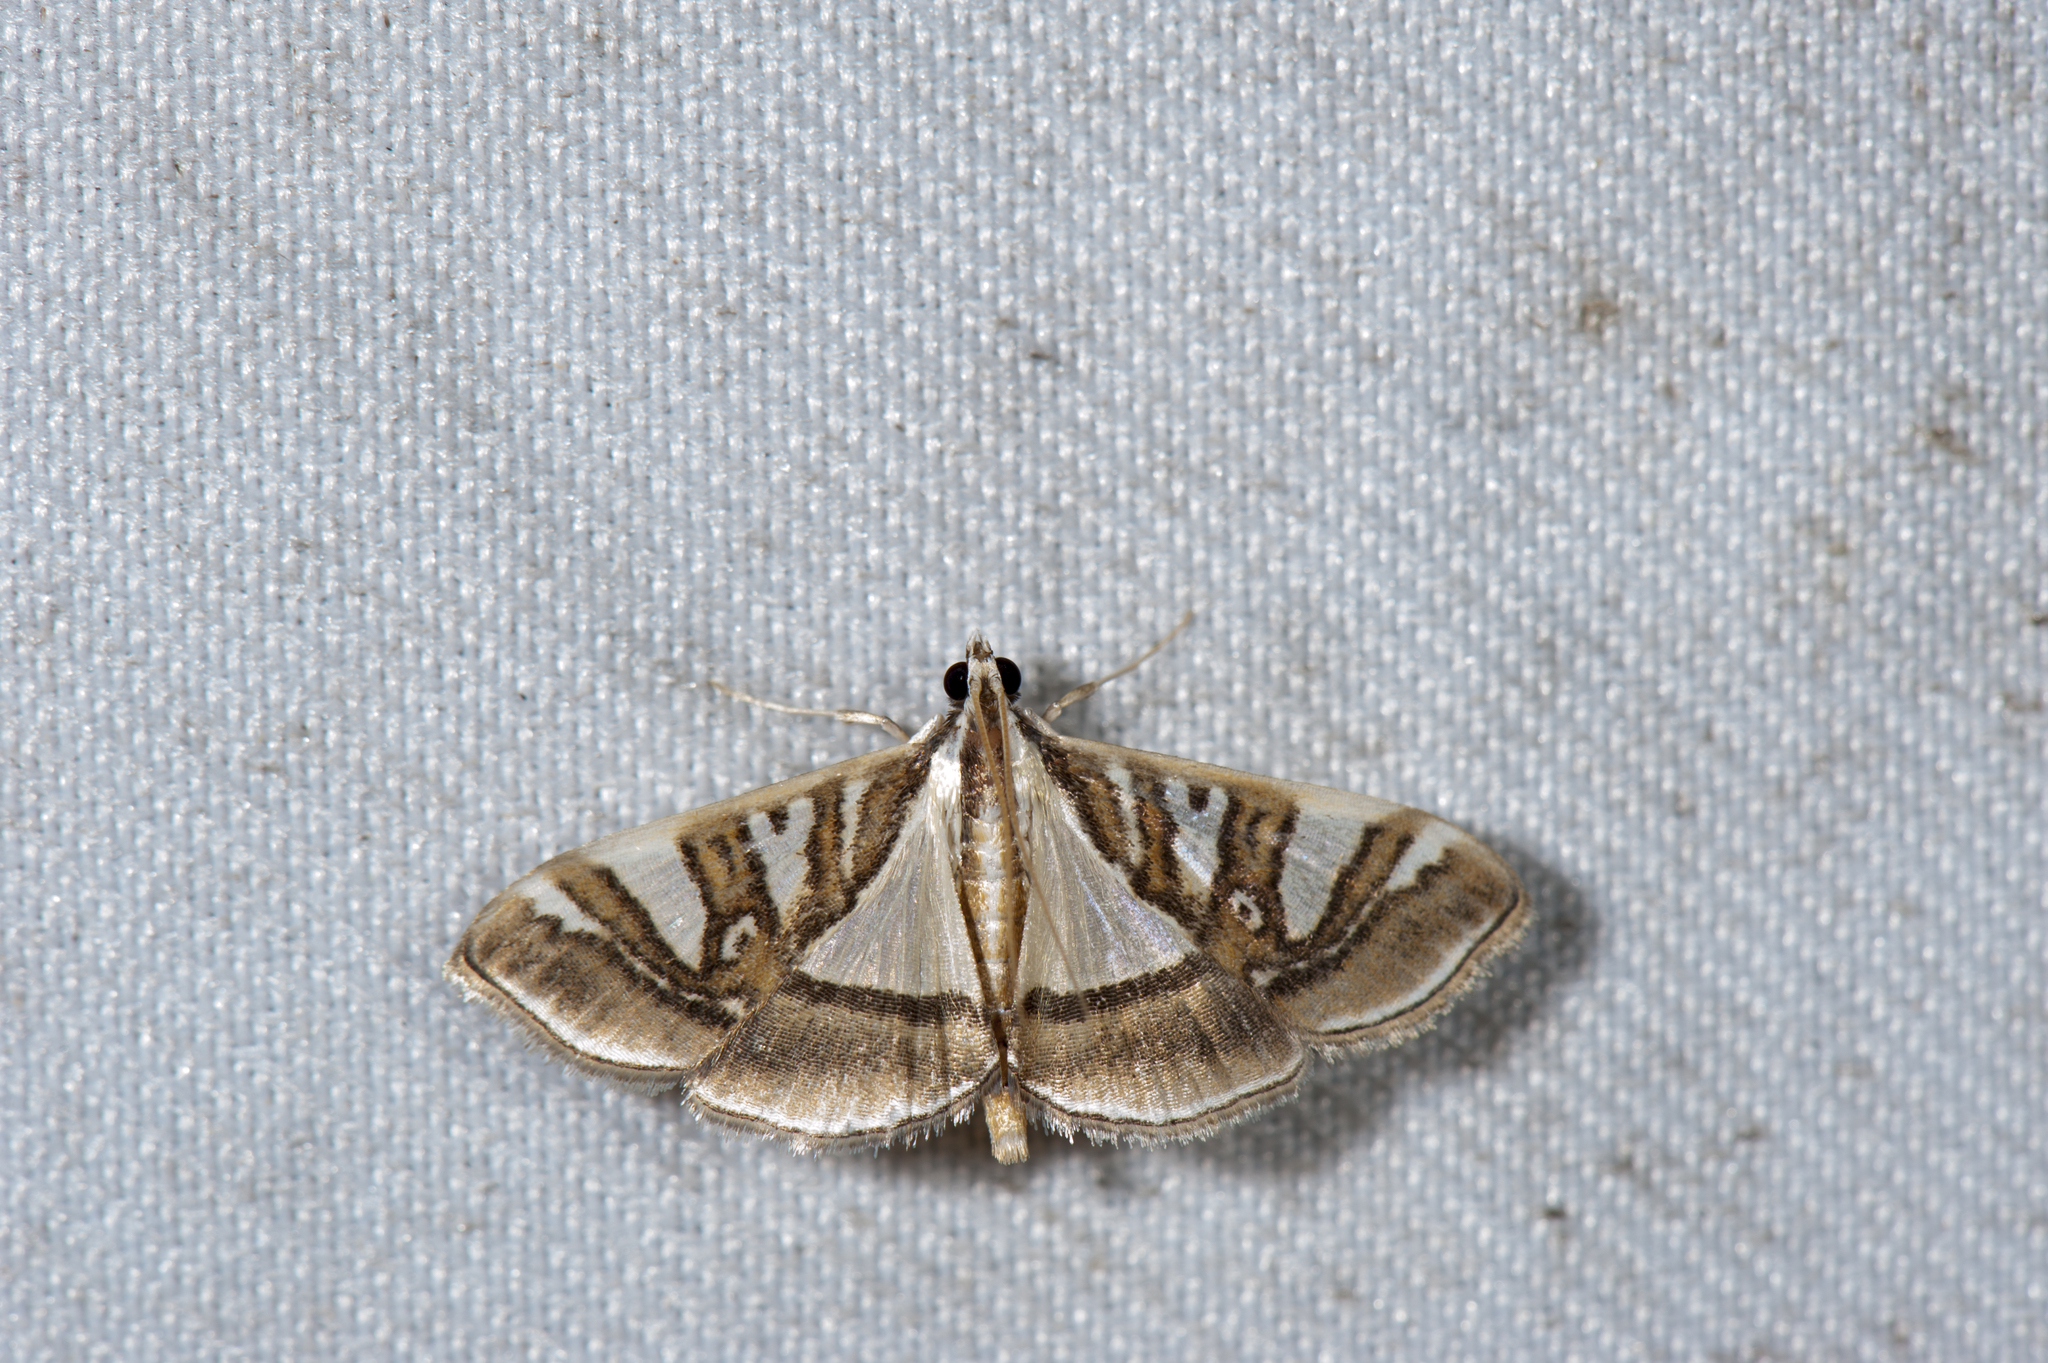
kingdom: Animalia
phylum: Arthropoda
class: Insecta
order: Lepidoptera
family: Crambidae
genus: Glyphodes
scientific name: Glyphodes duplicalis
